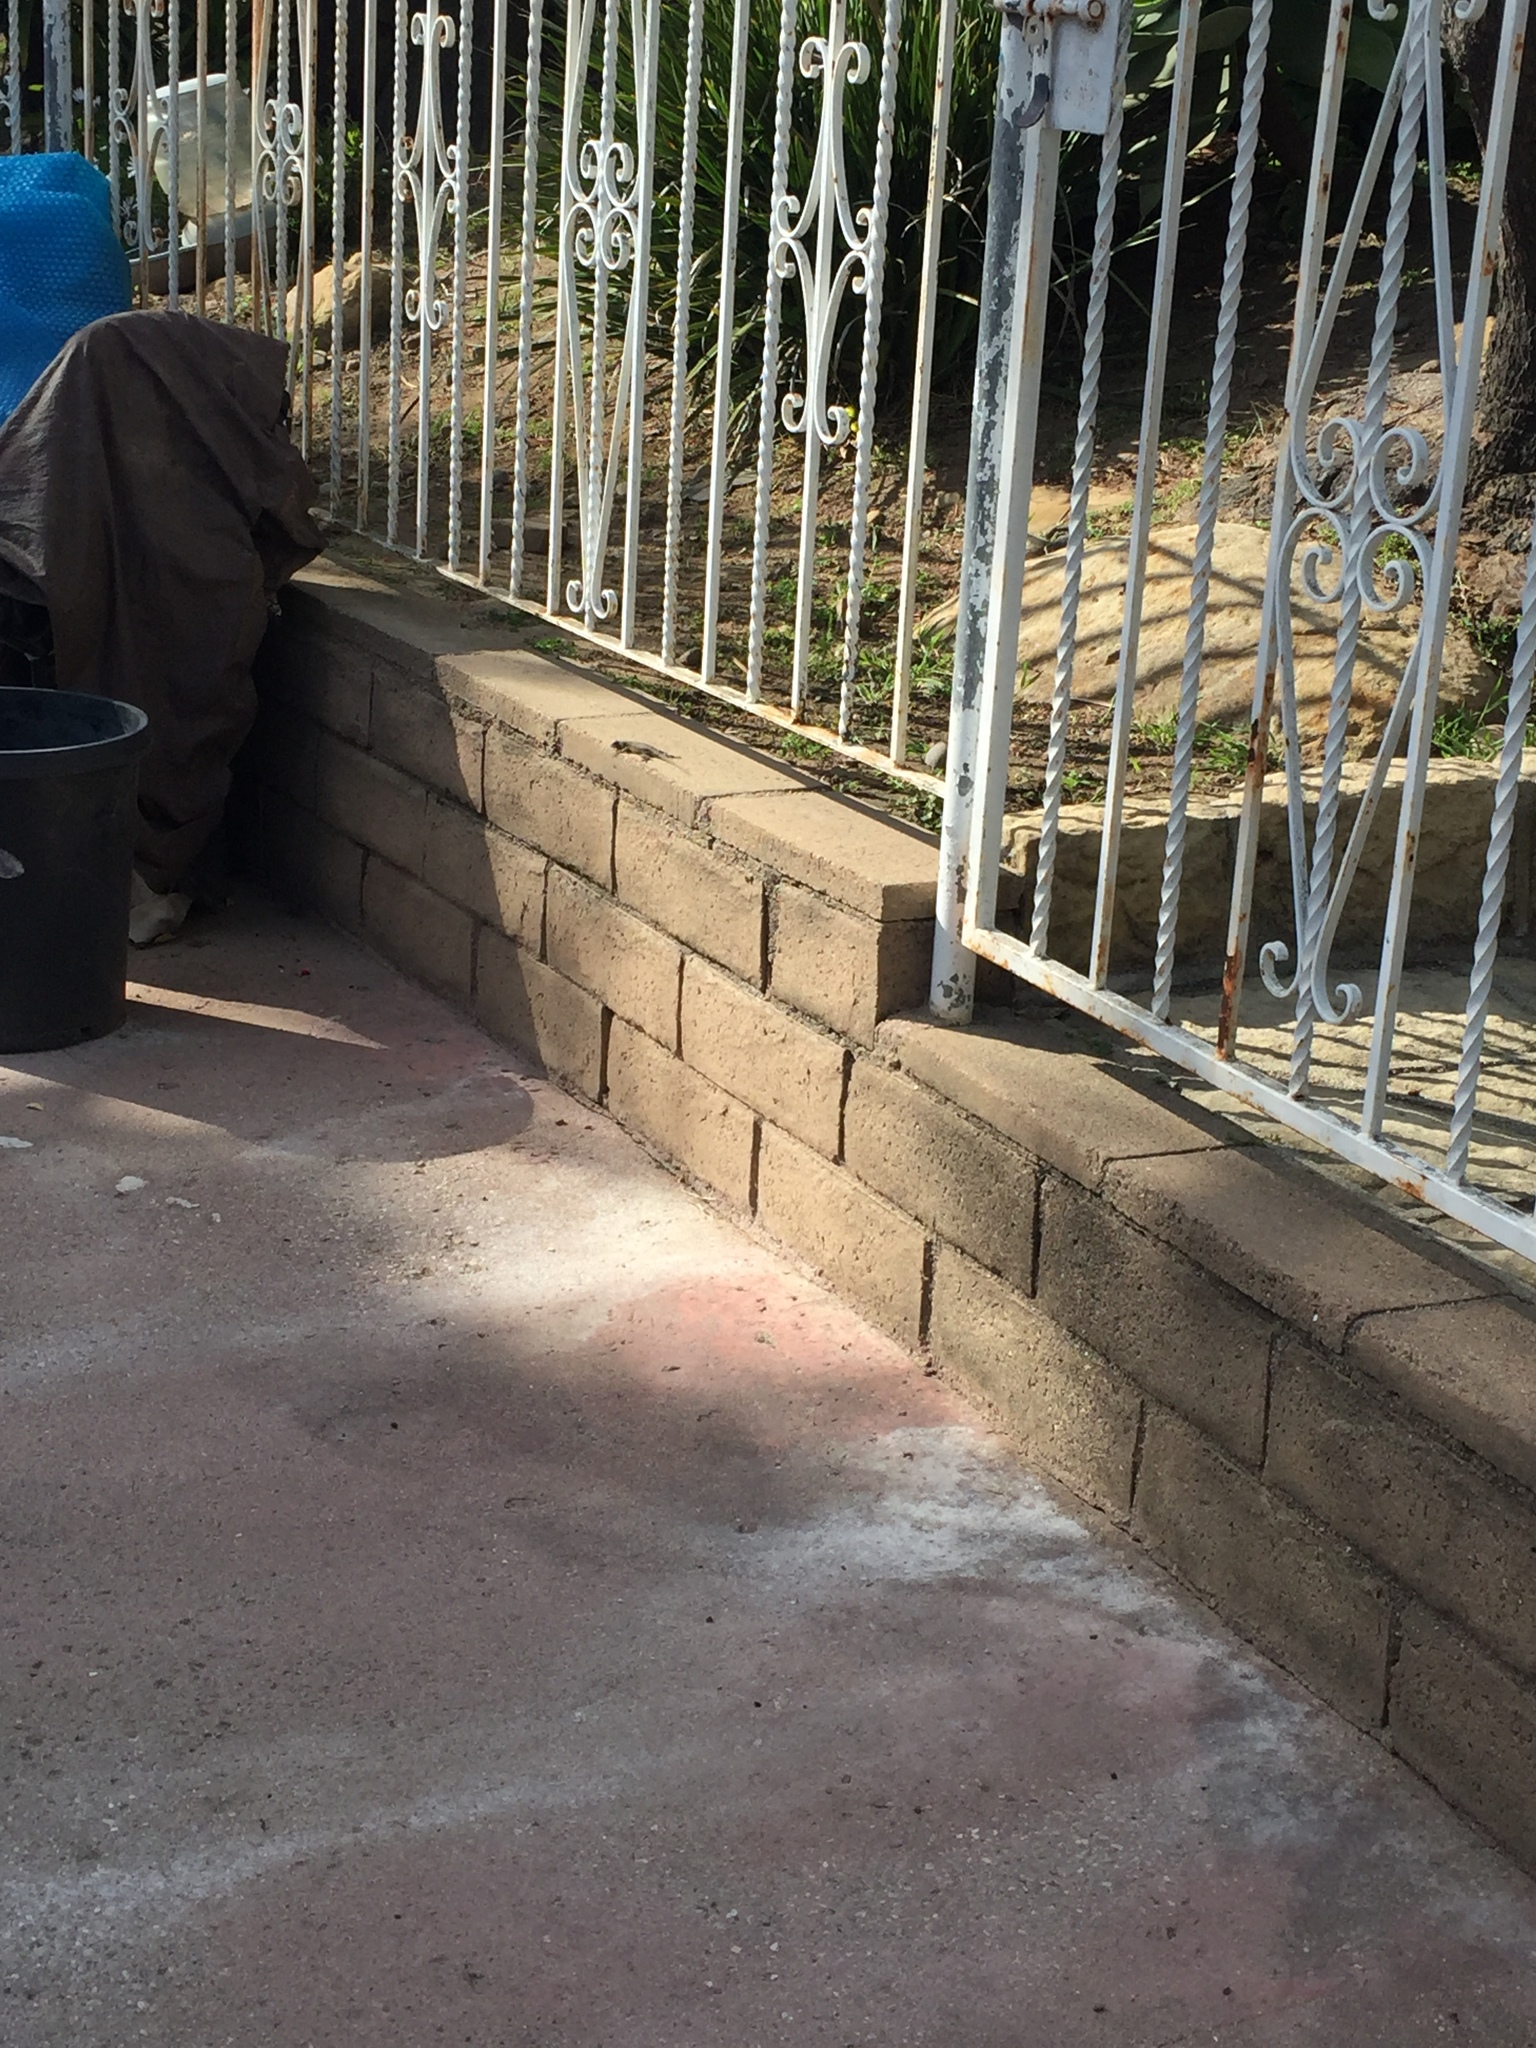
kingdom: Animalia
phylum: Chordata
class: Squamata
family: Phrynosomatidae
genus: Sceloporus
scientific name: Sceloporus occidentalis
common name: Western fence lizard
